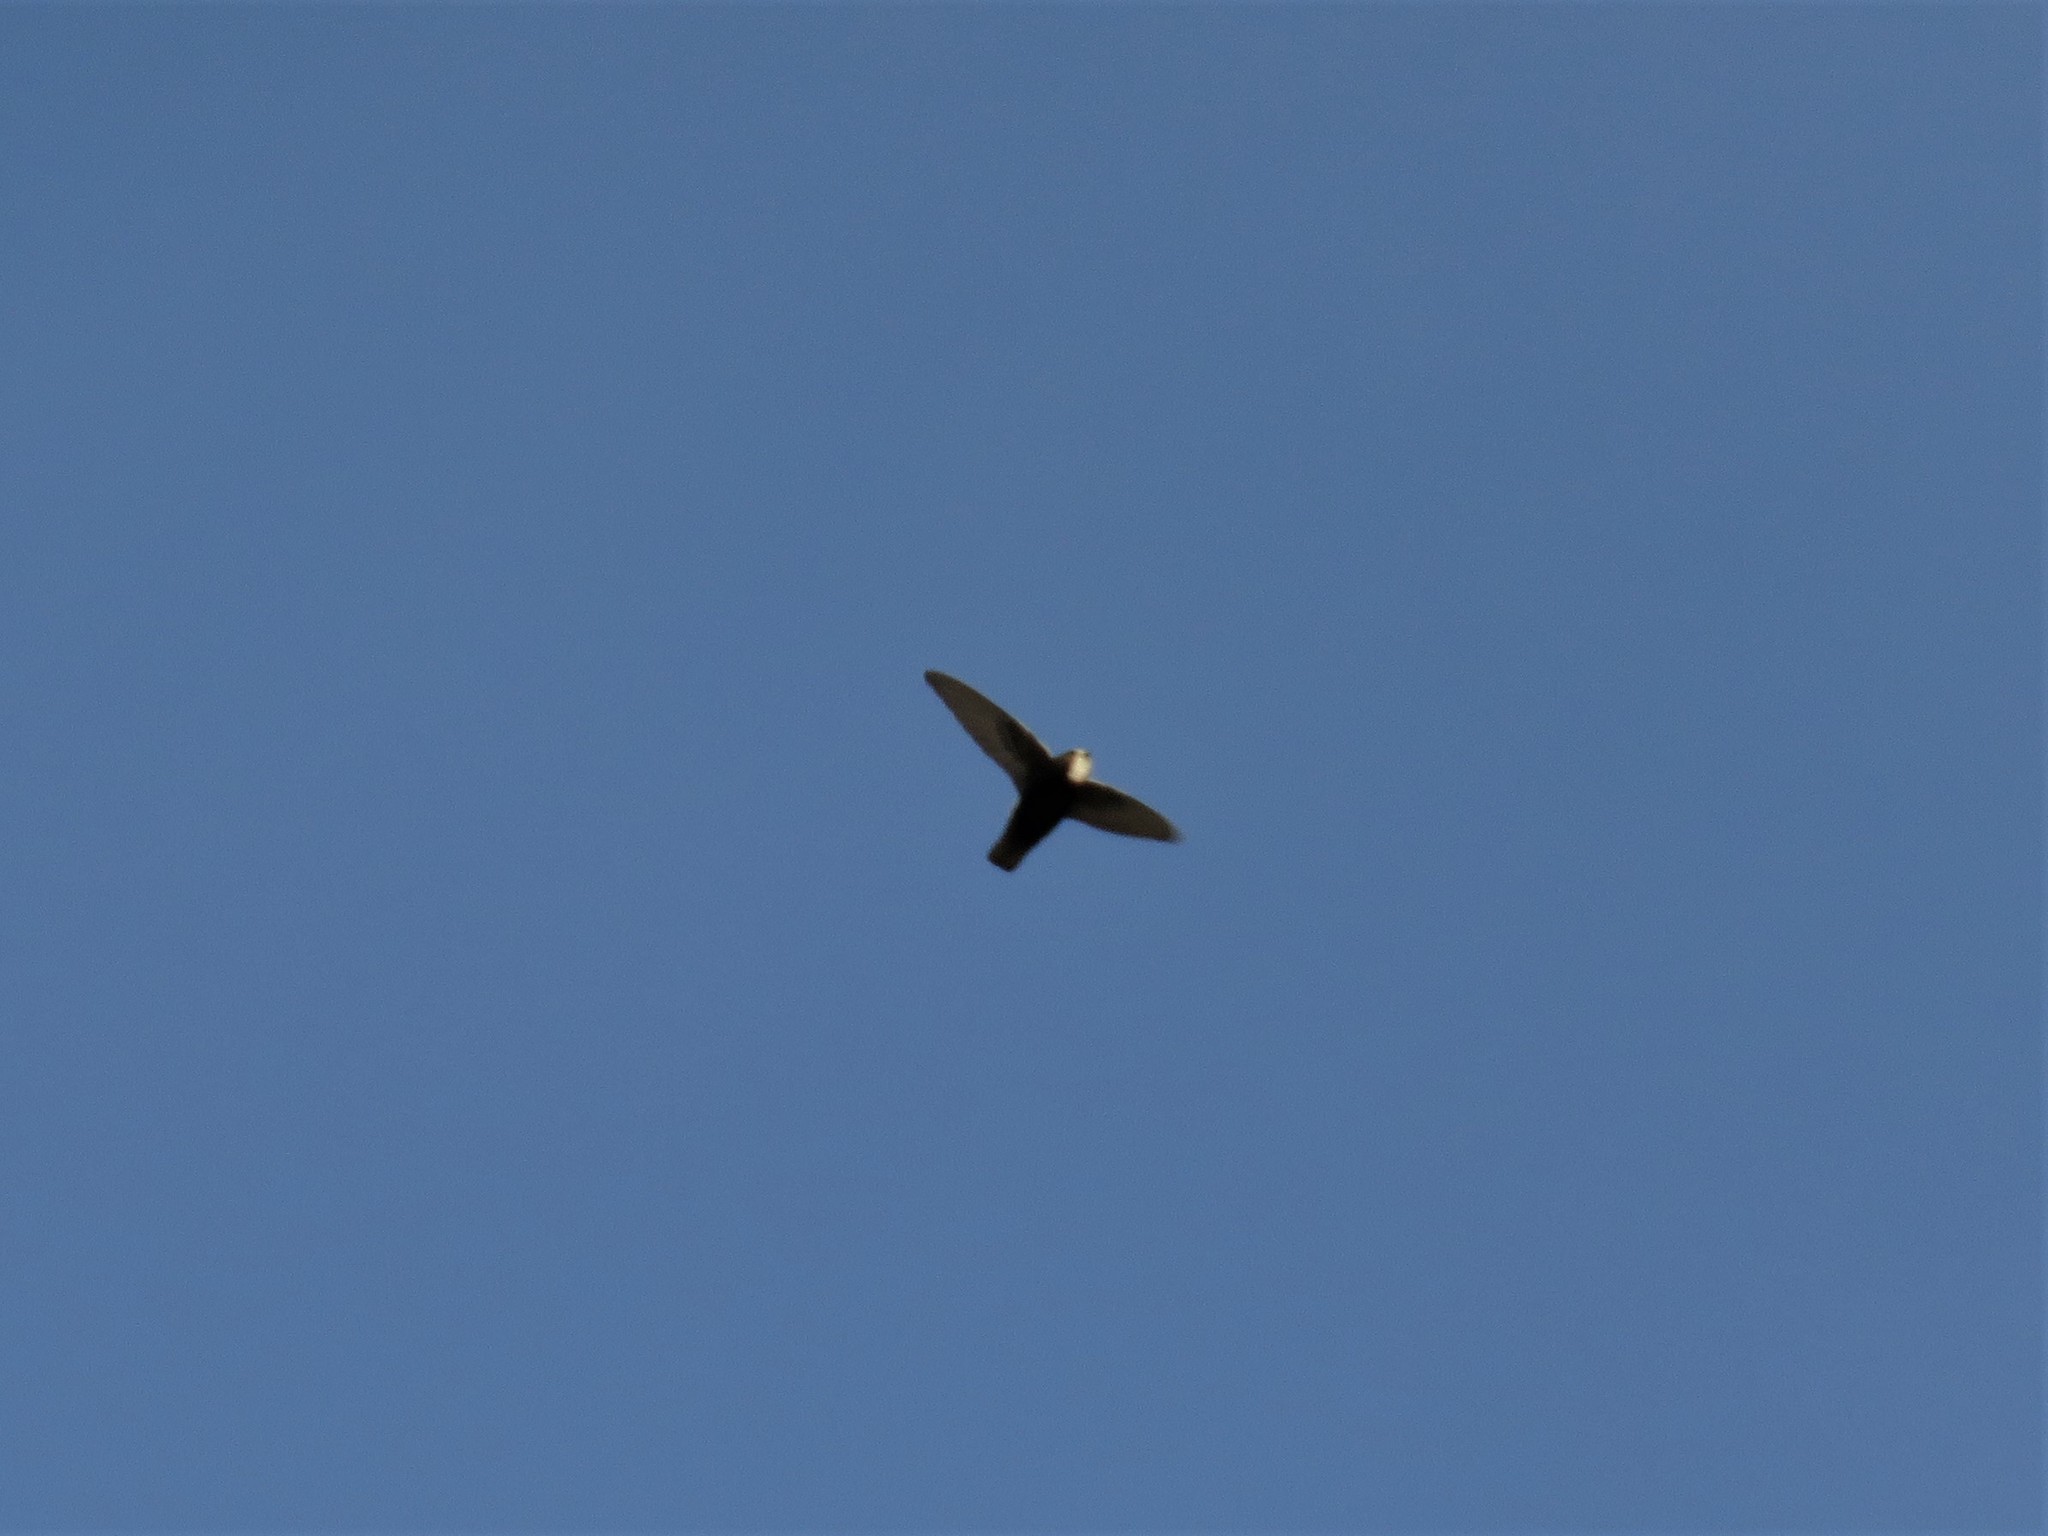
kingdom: Animalia
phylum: Chordata
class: Aves
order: Apodiformes
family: Apodidae
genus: Apus
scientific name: Apus affinis
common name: Little swift
